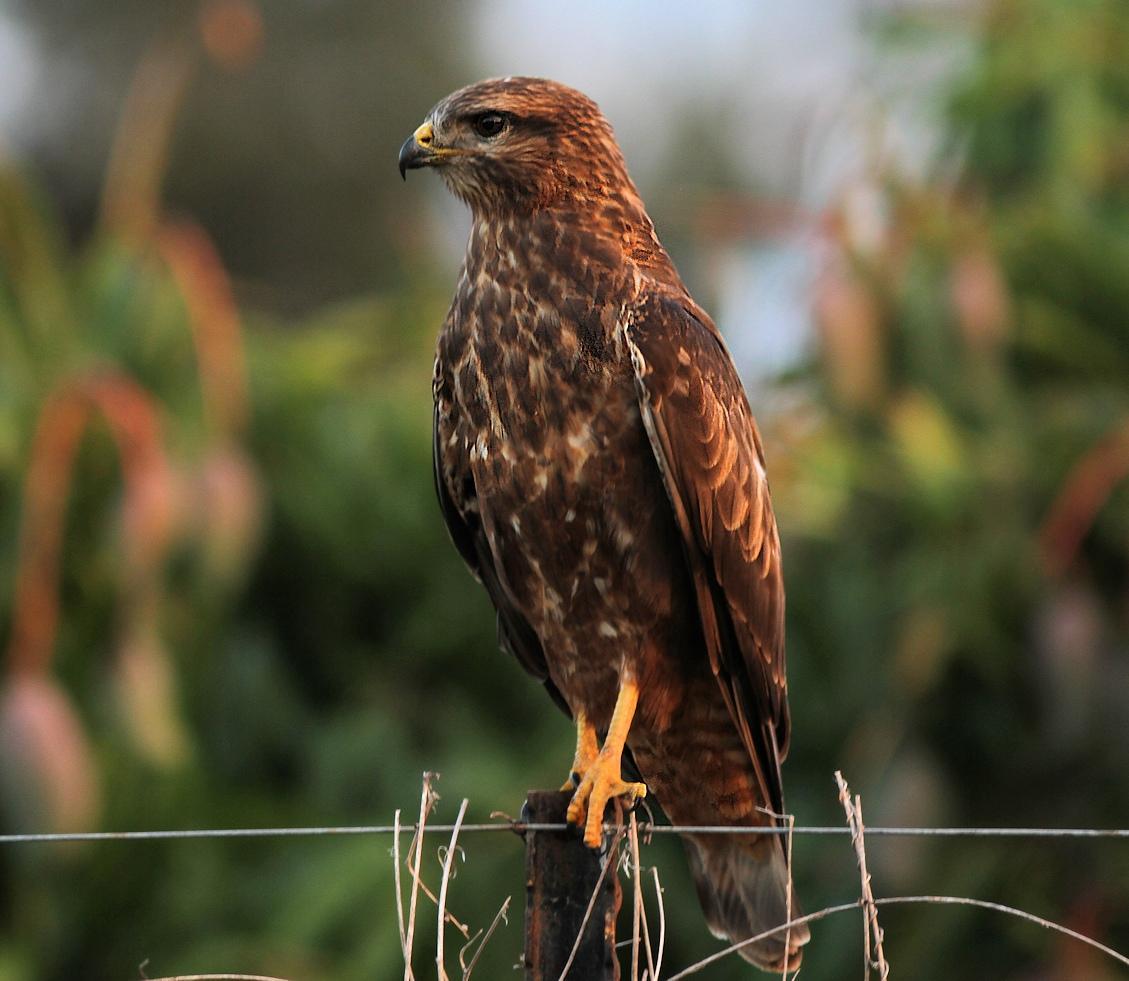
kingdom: Animalia
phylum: Chordata
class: Aves
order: Accipitriformes
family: Accipitridae
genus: Buteo
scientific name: Buteo buteo
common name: Common buzzard
